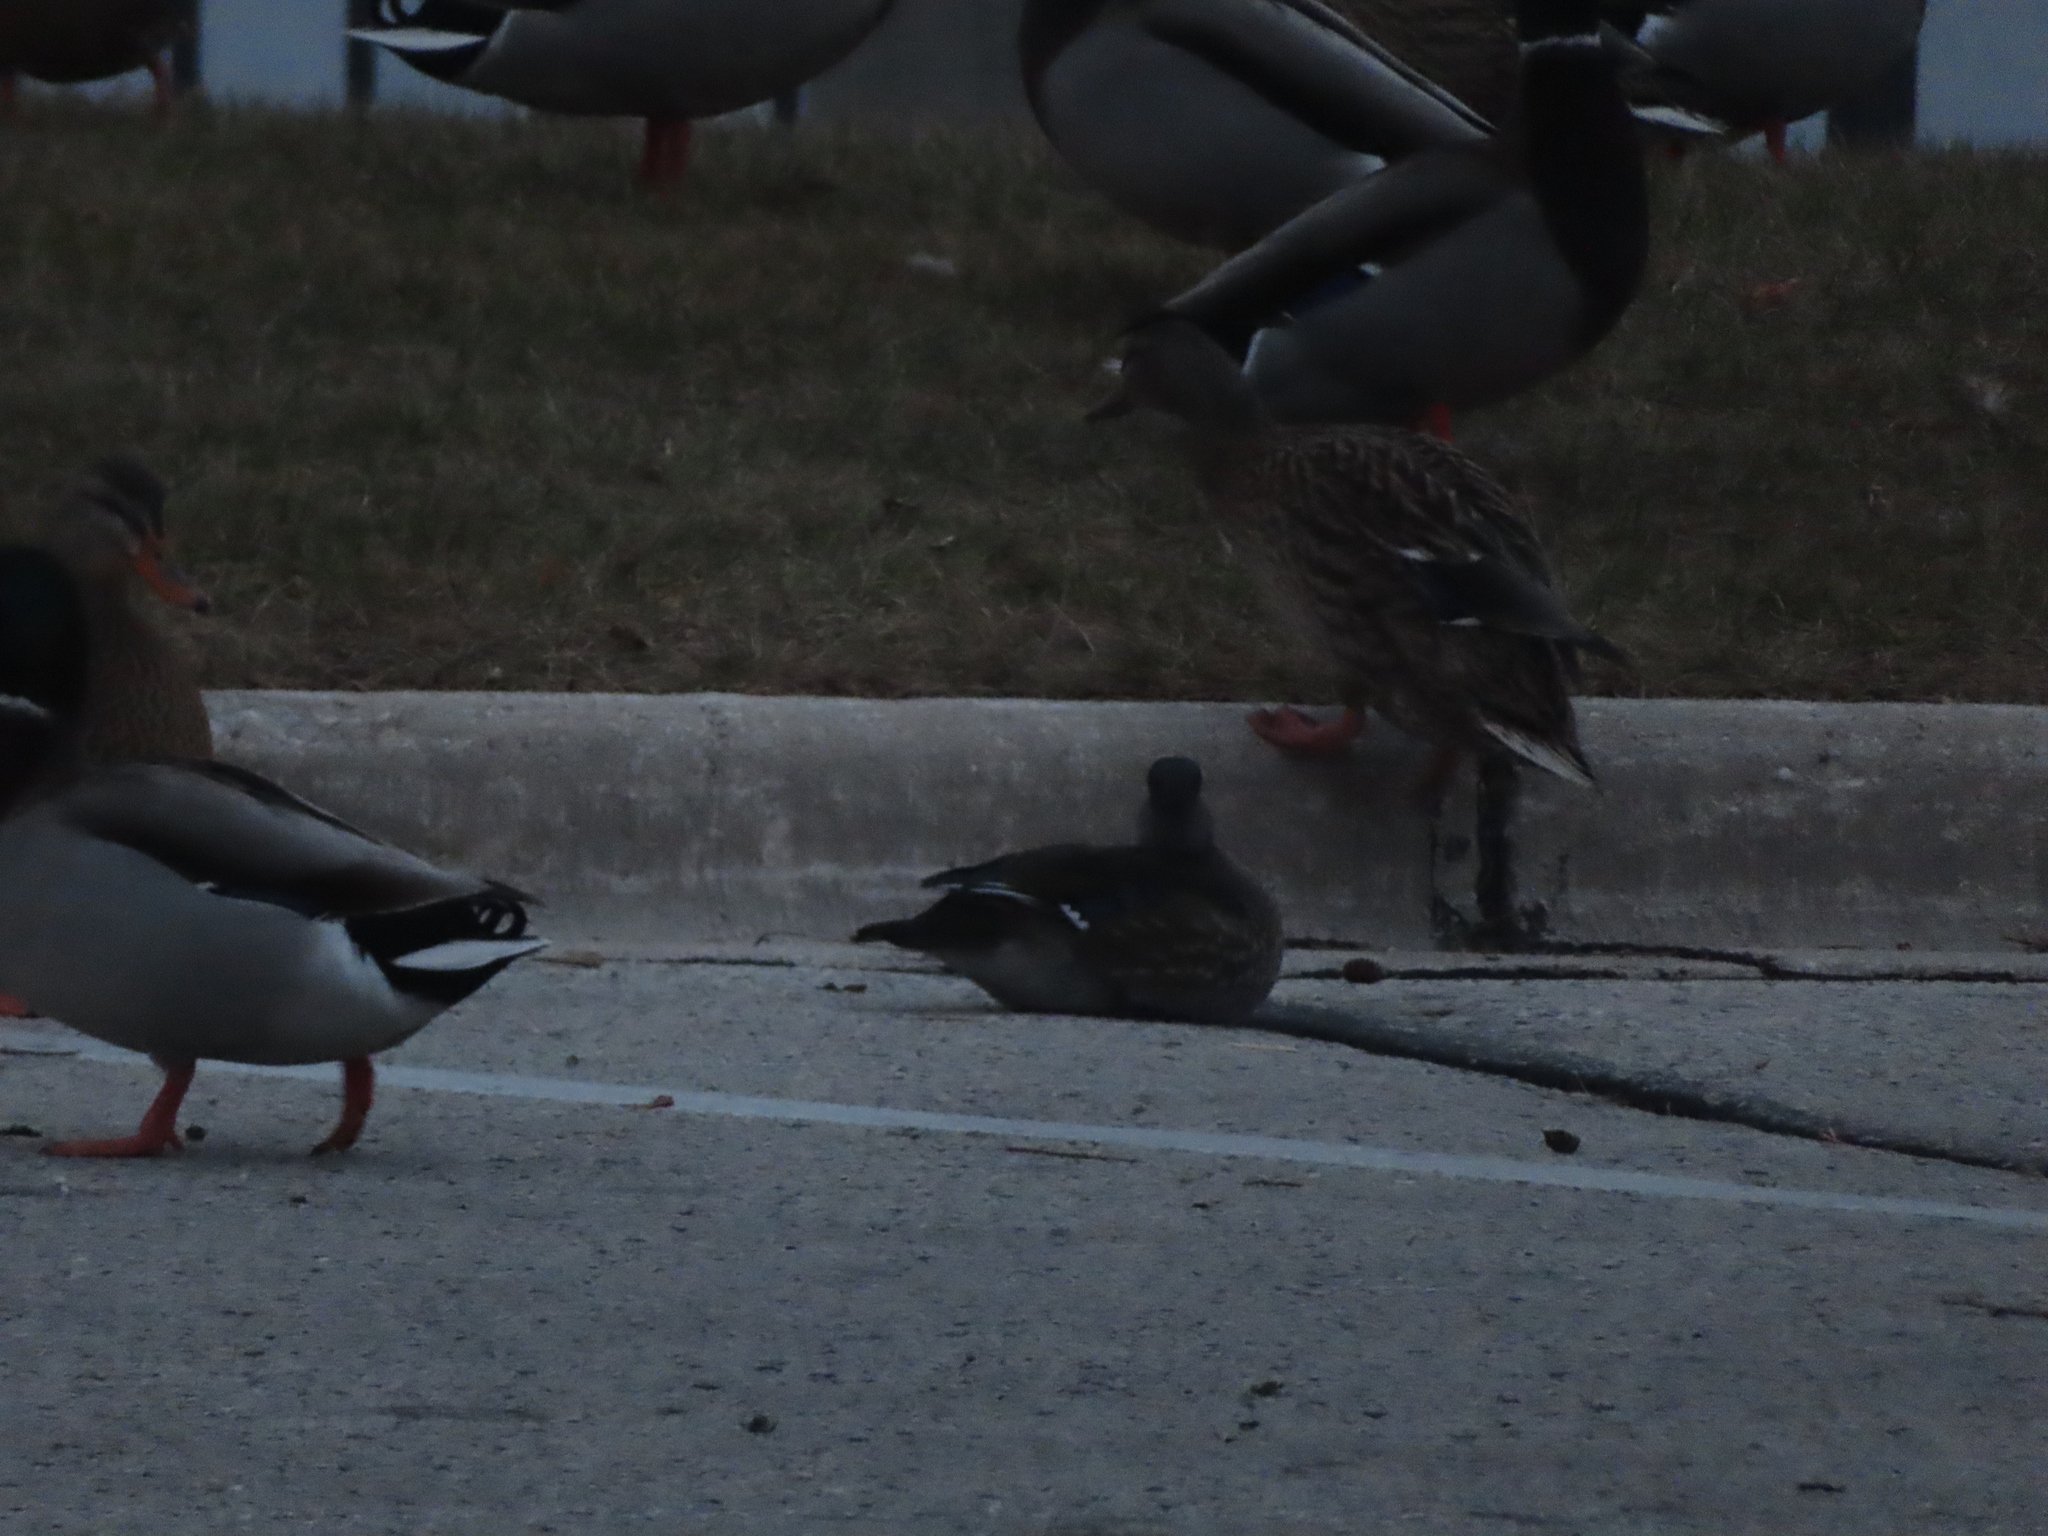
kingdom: Animalia
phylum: Chordata
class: Aves
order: Anseriformes
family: Anatidae
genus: Anas
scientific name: Anas platyrhynchos
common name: Mallard
